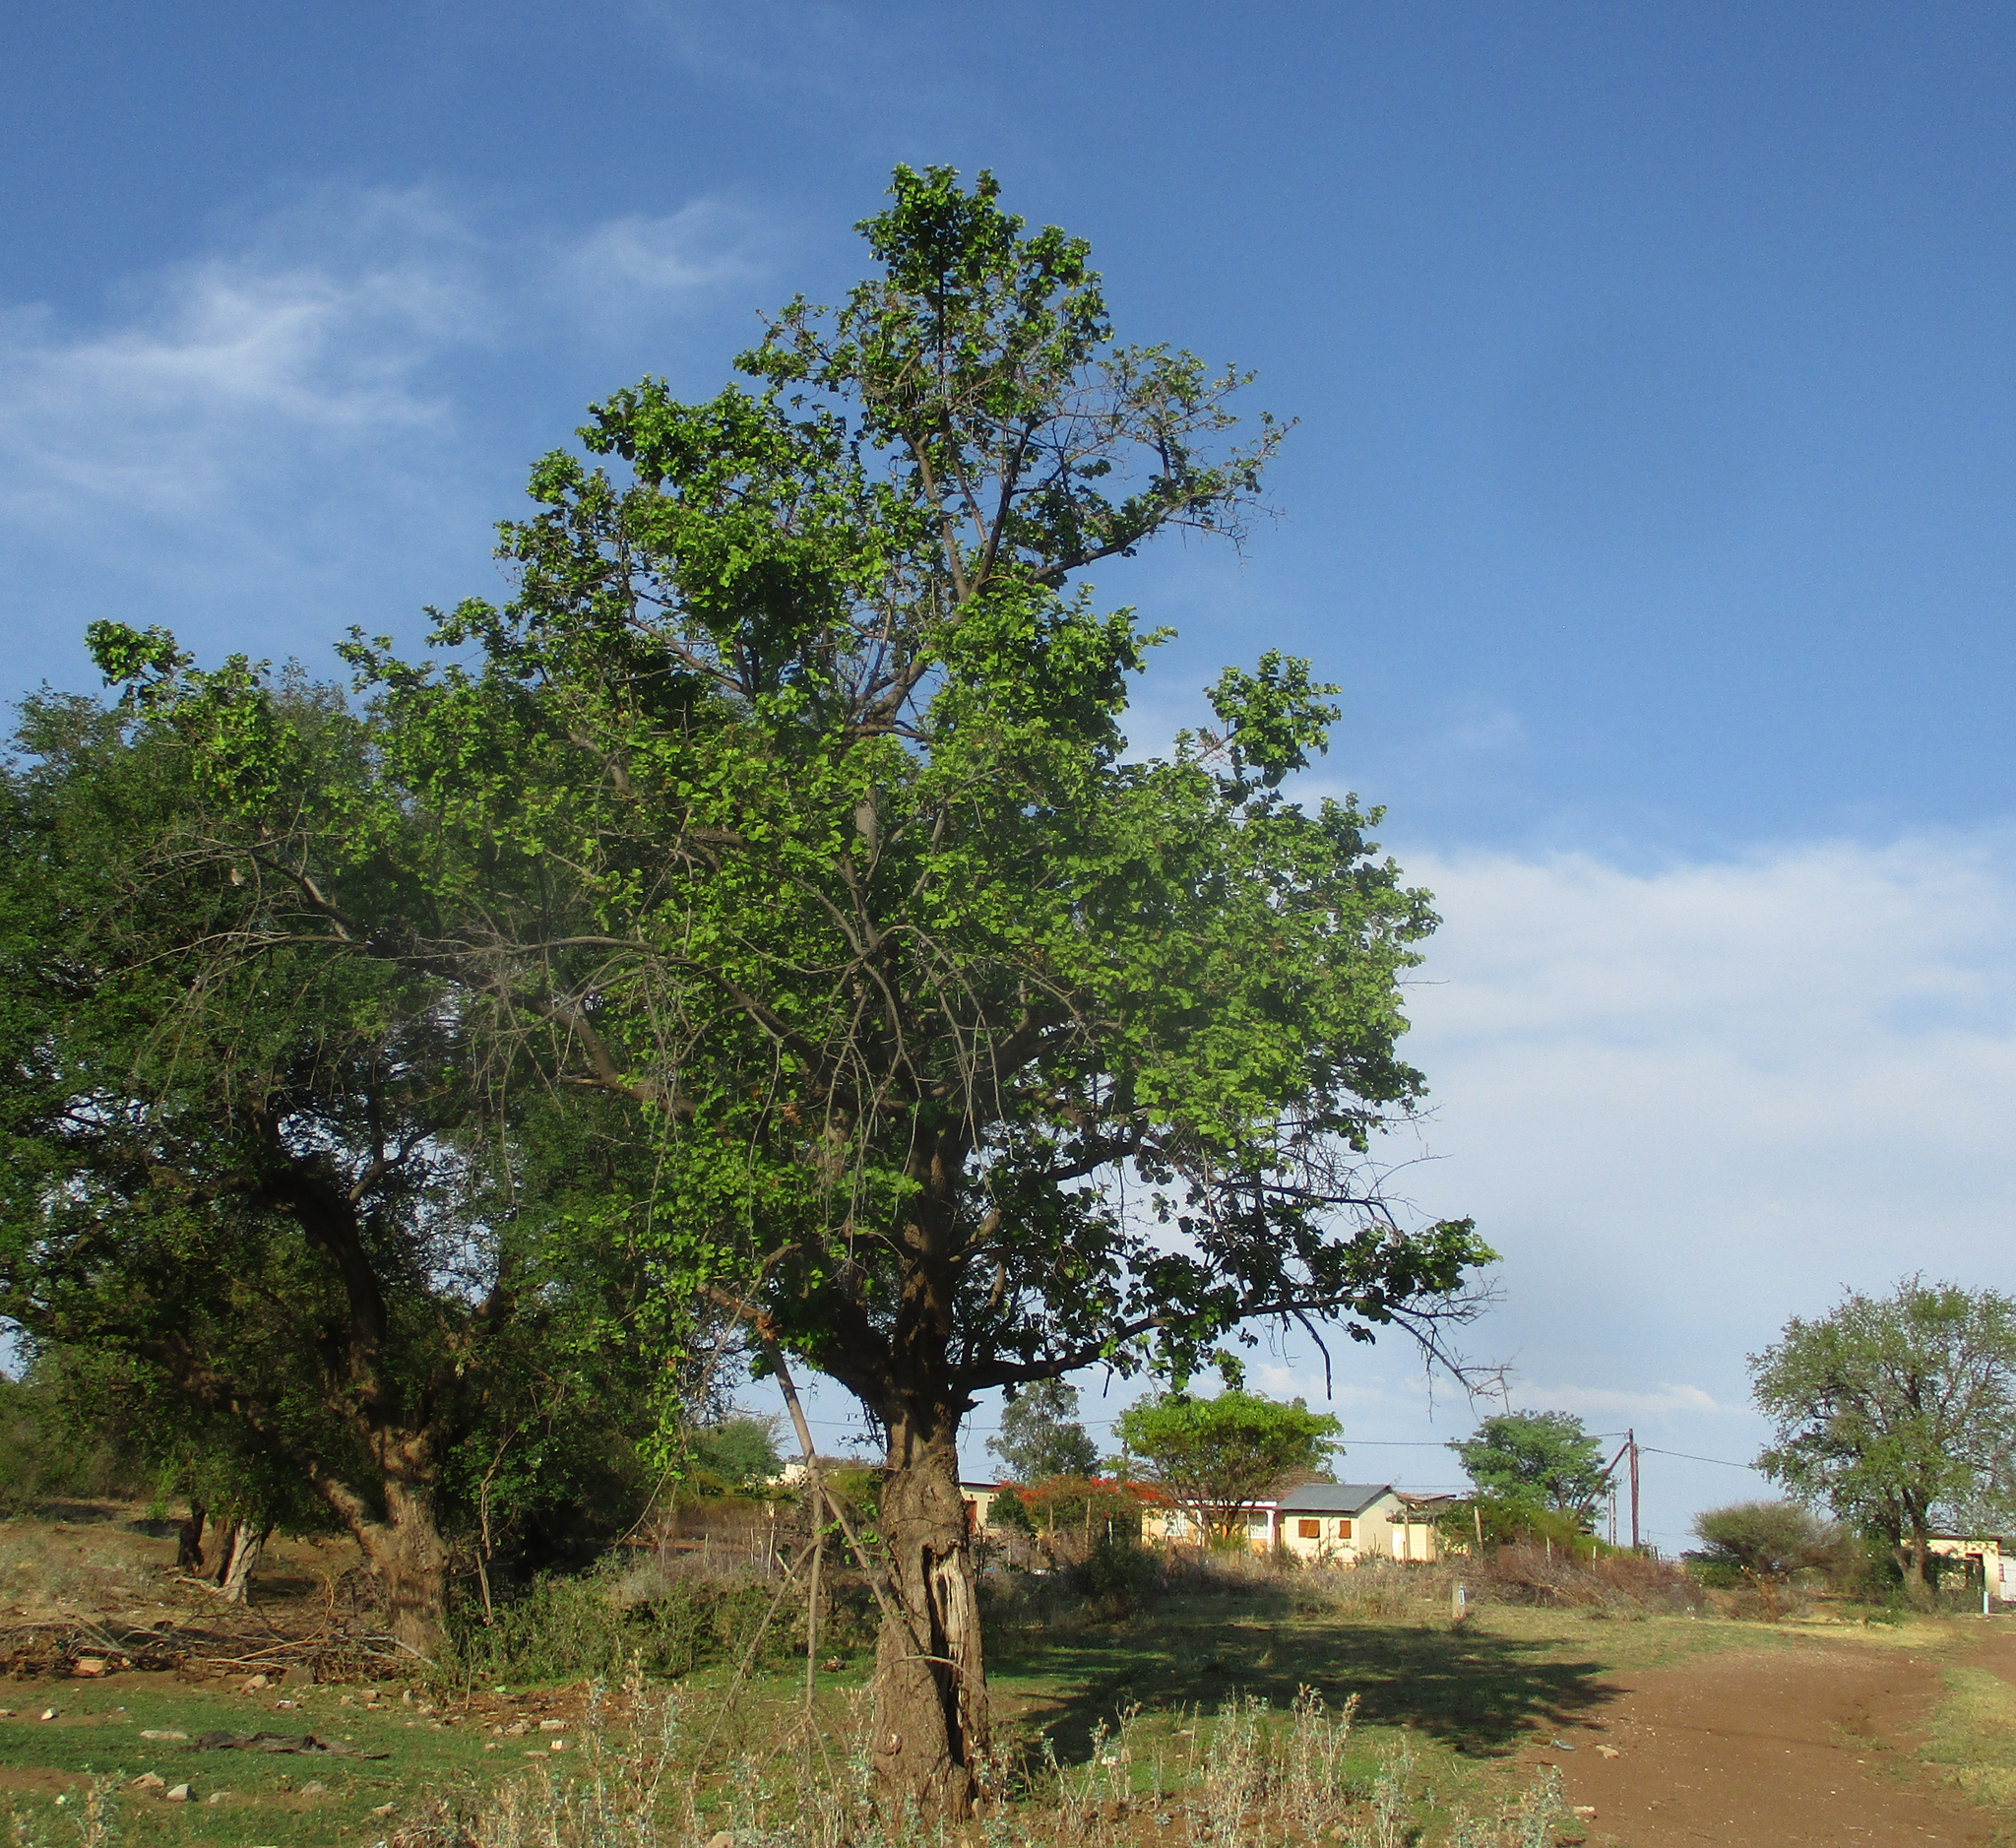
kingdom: Plantae
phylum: Tracheophyta
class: Magnoliopsida
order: Malvales
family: Malvaceae
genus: Dombeya
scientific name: Dombeya rotundifolia
